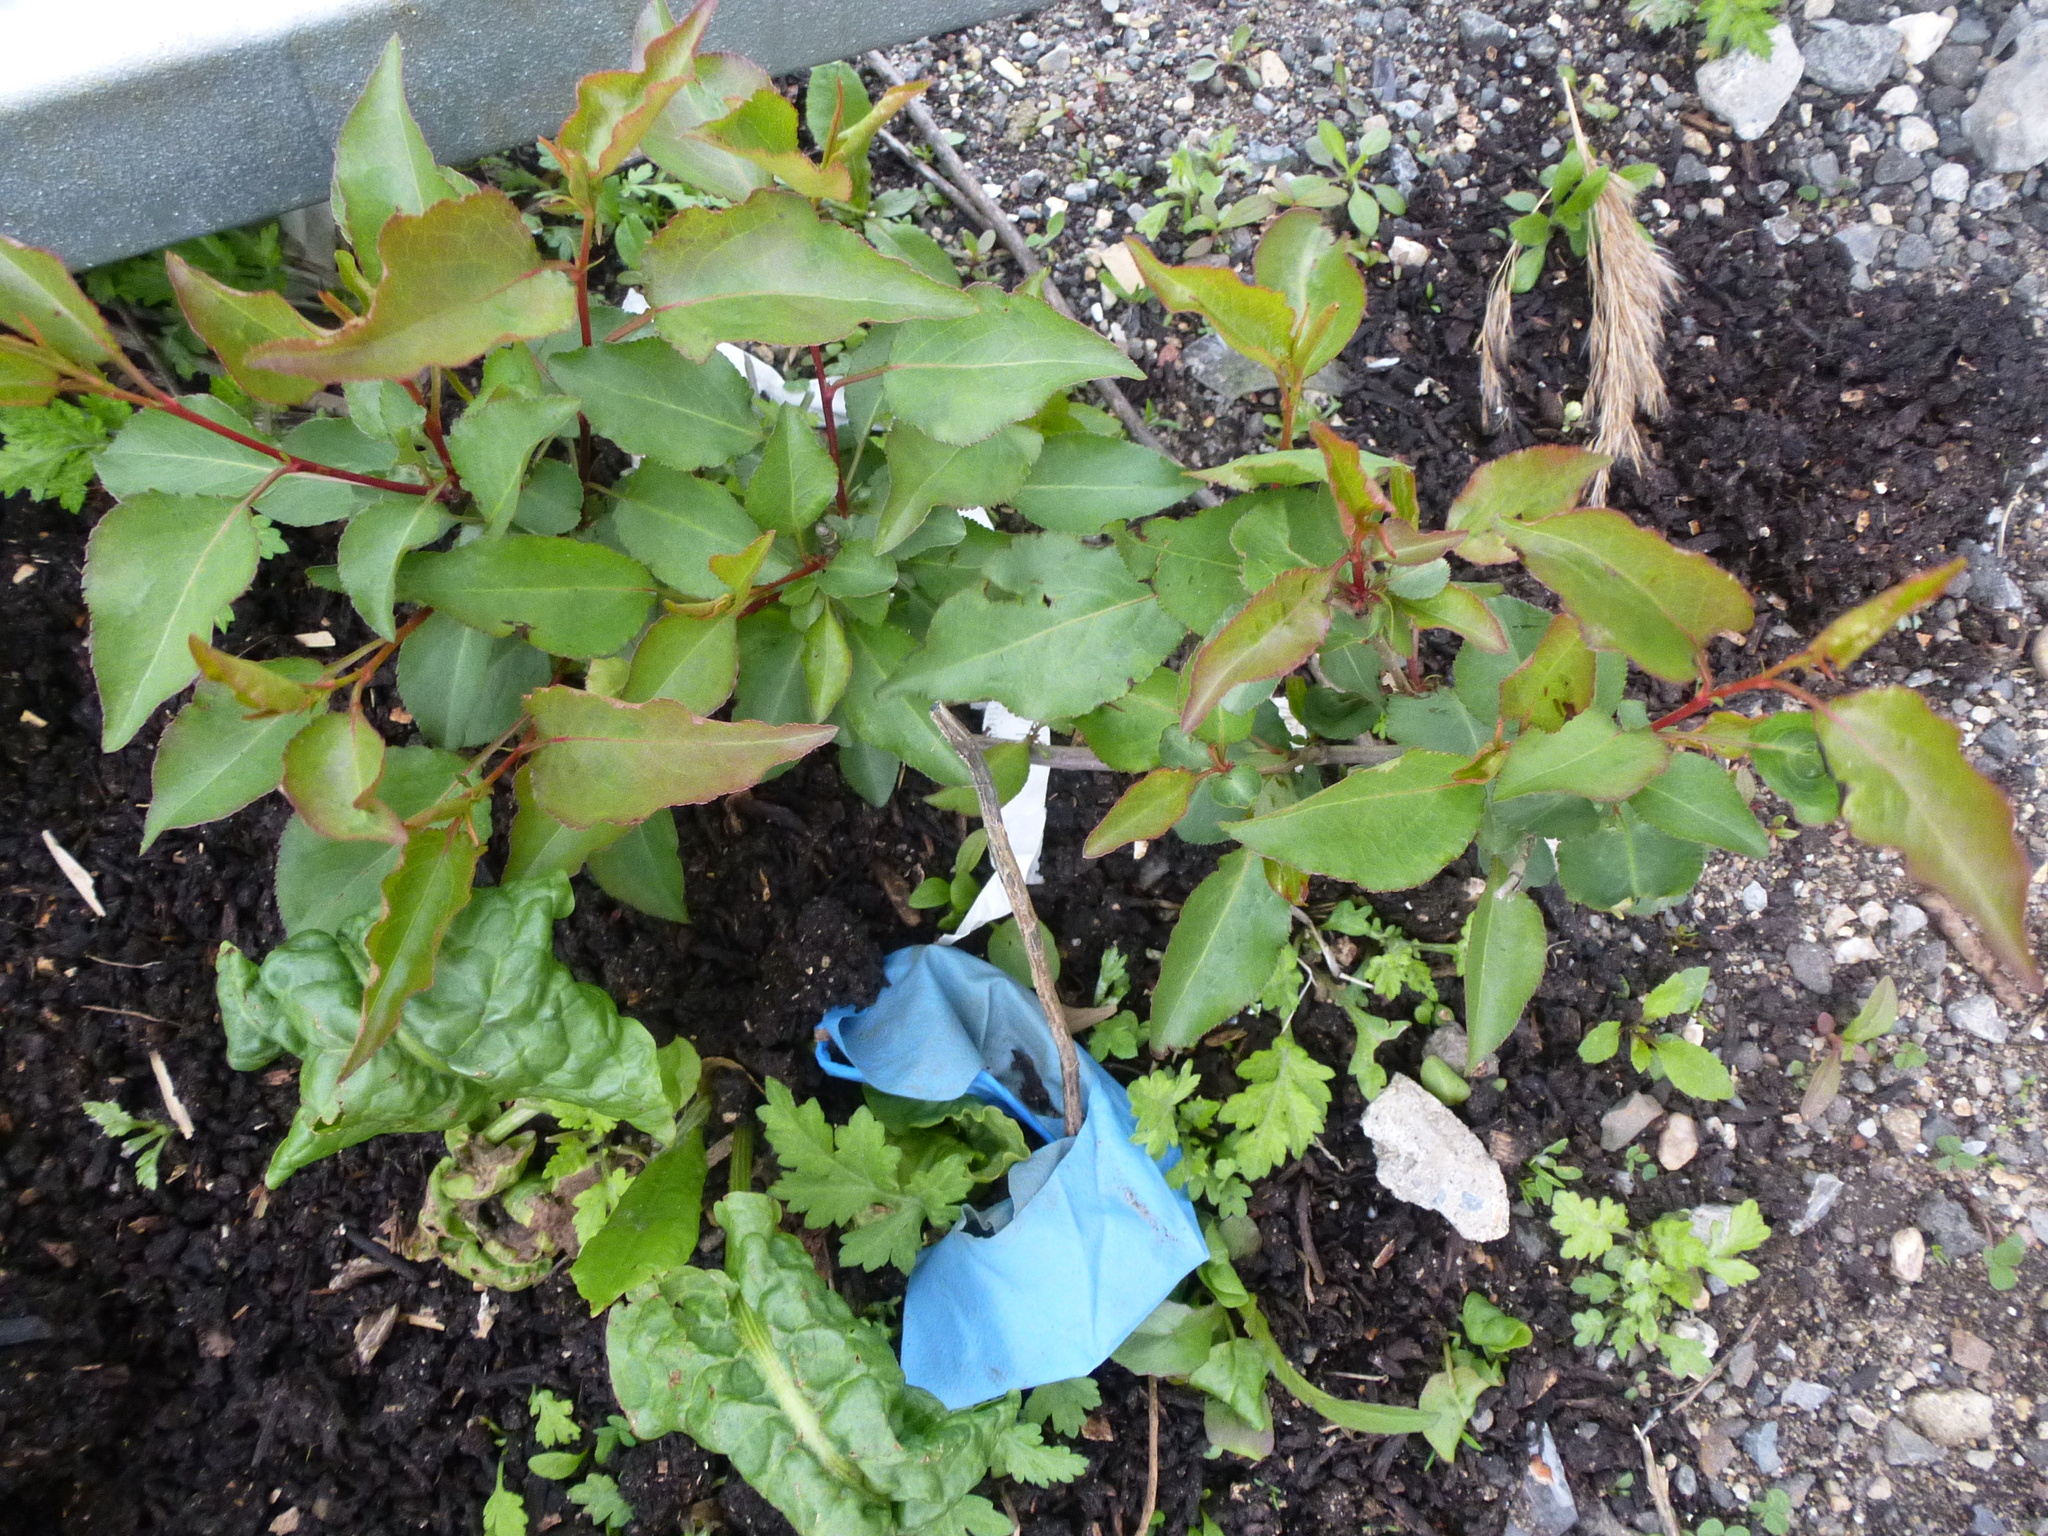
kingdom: Plantae
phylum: Tracheophyta
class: Magnoliopsida
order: Rosales
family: Rosaceae
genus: Prunus
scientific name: Prunus serotina
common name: Black cherry
